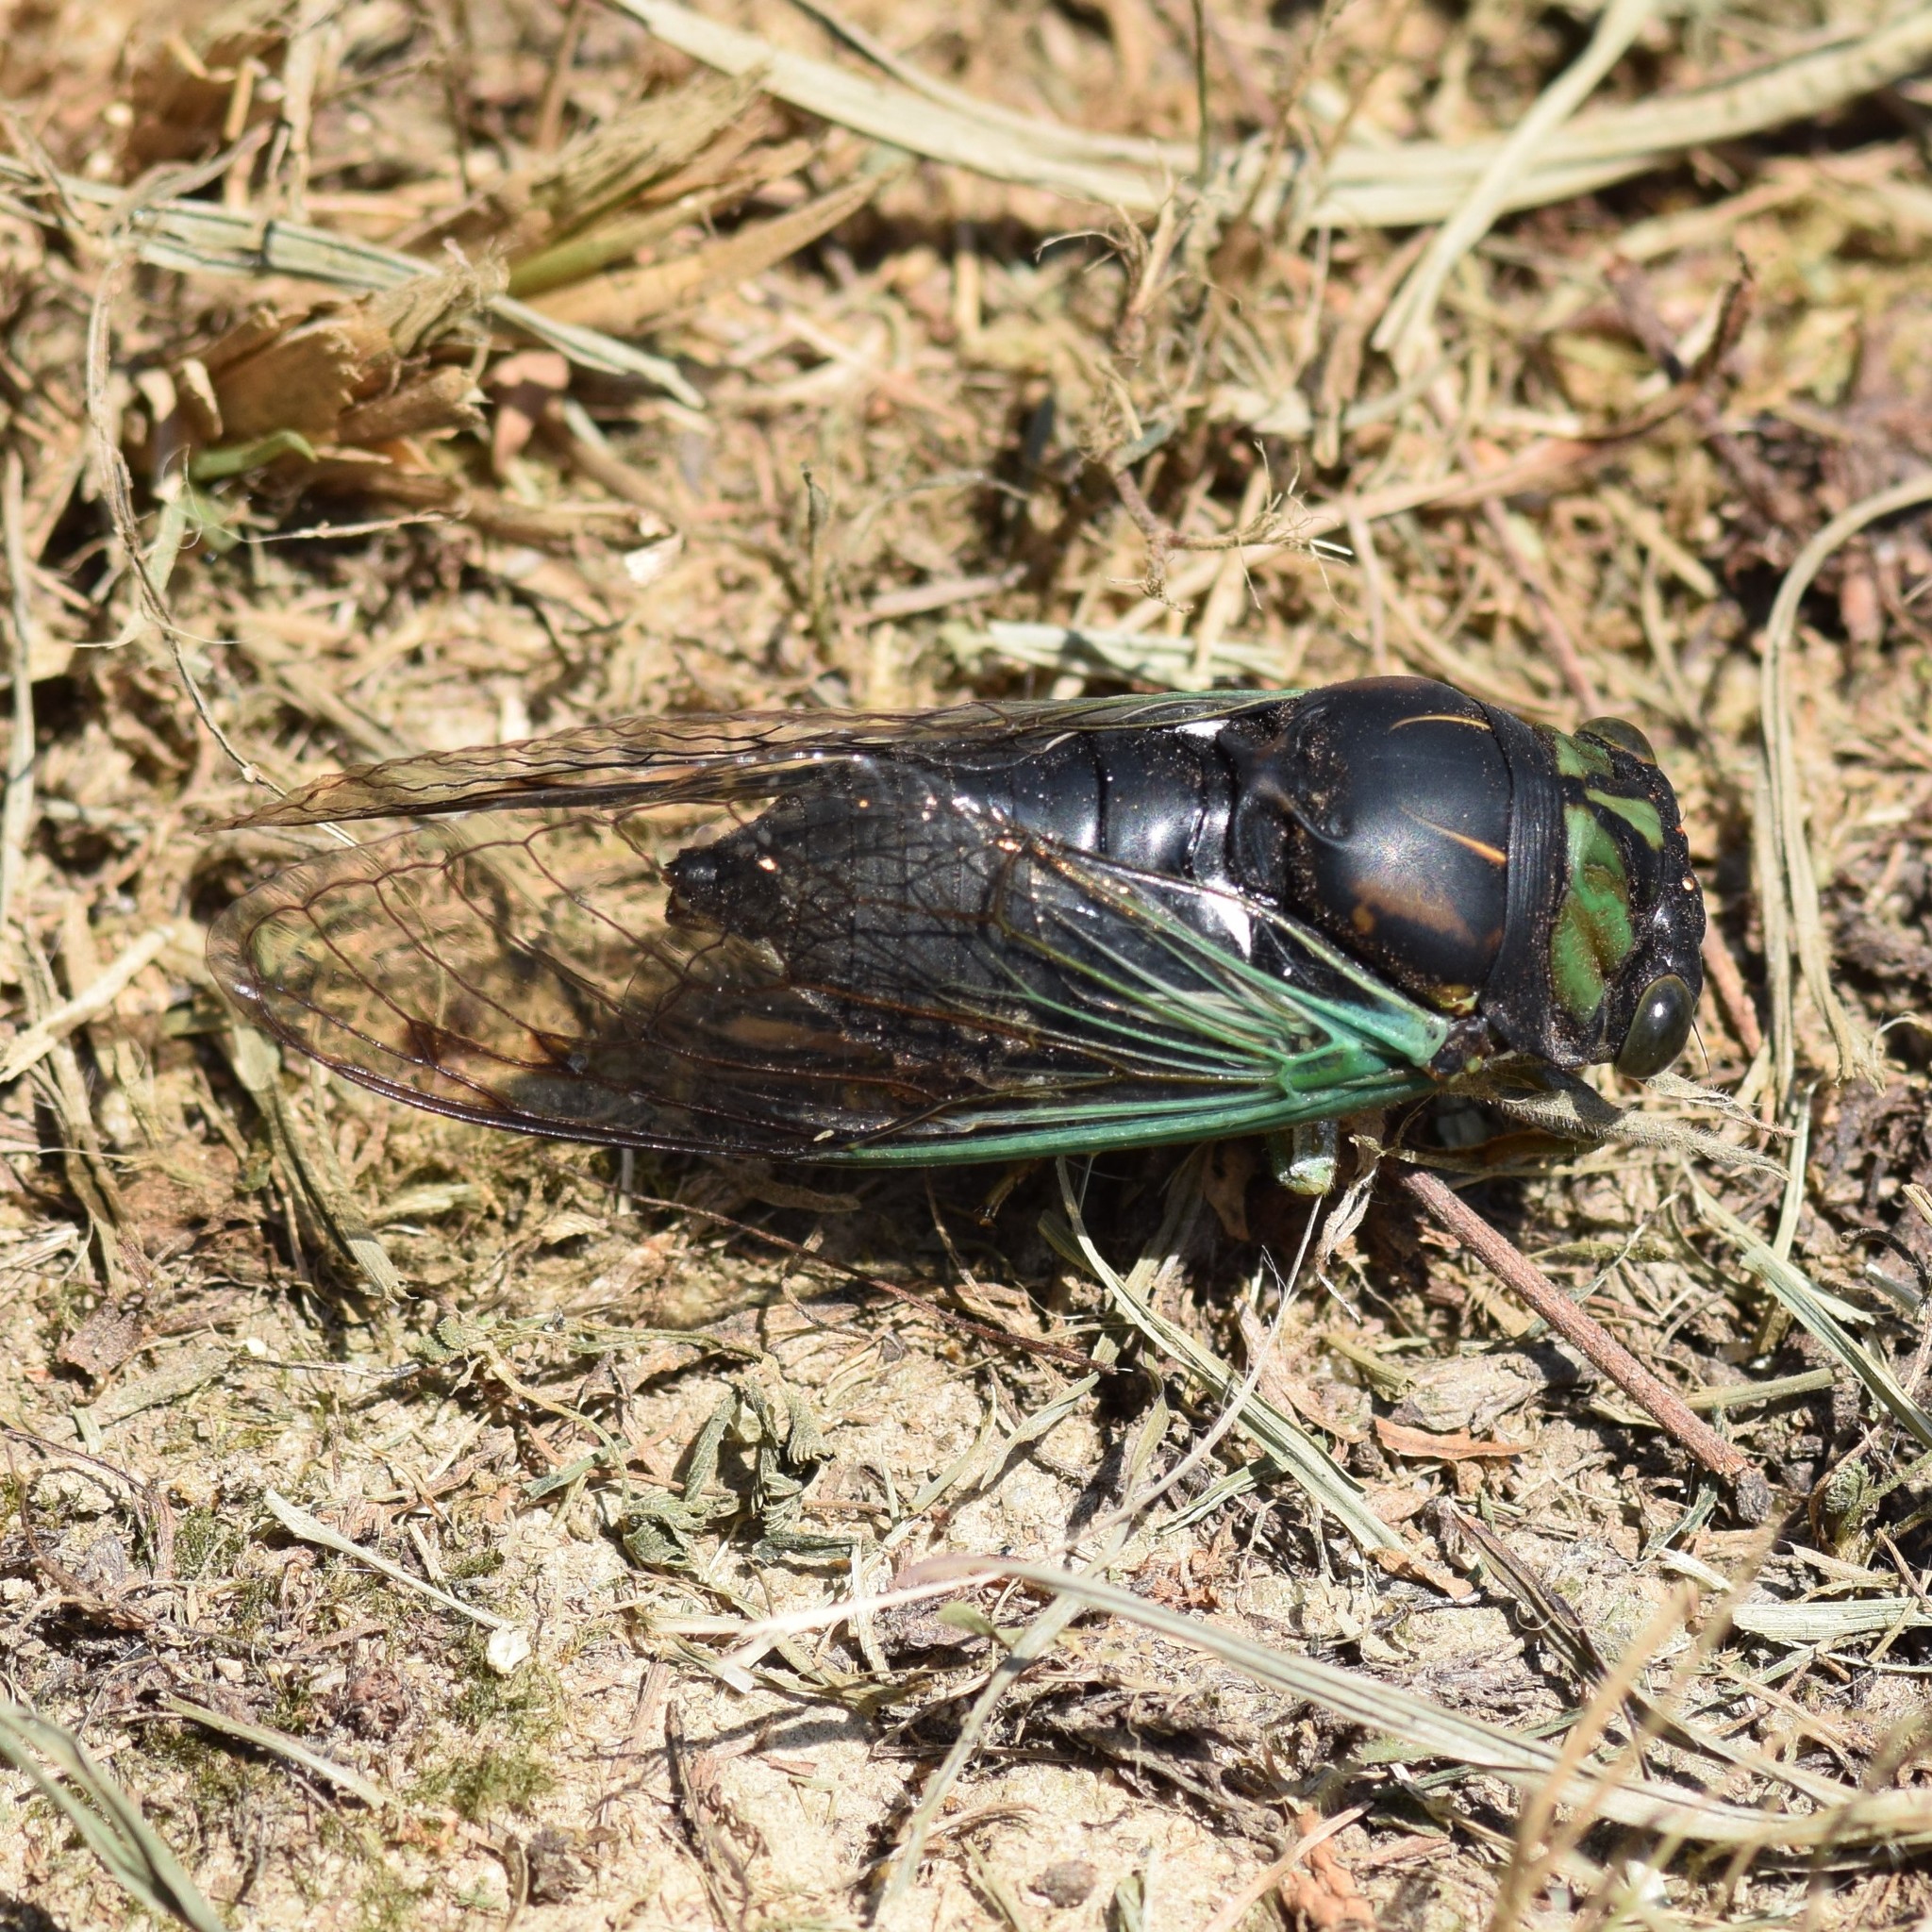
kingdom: Animalia
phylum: Arthropoda
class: Insecta
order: Hemiptera
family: Cicadidae
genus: Neotibicen
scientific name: Neotibicen tibicen
